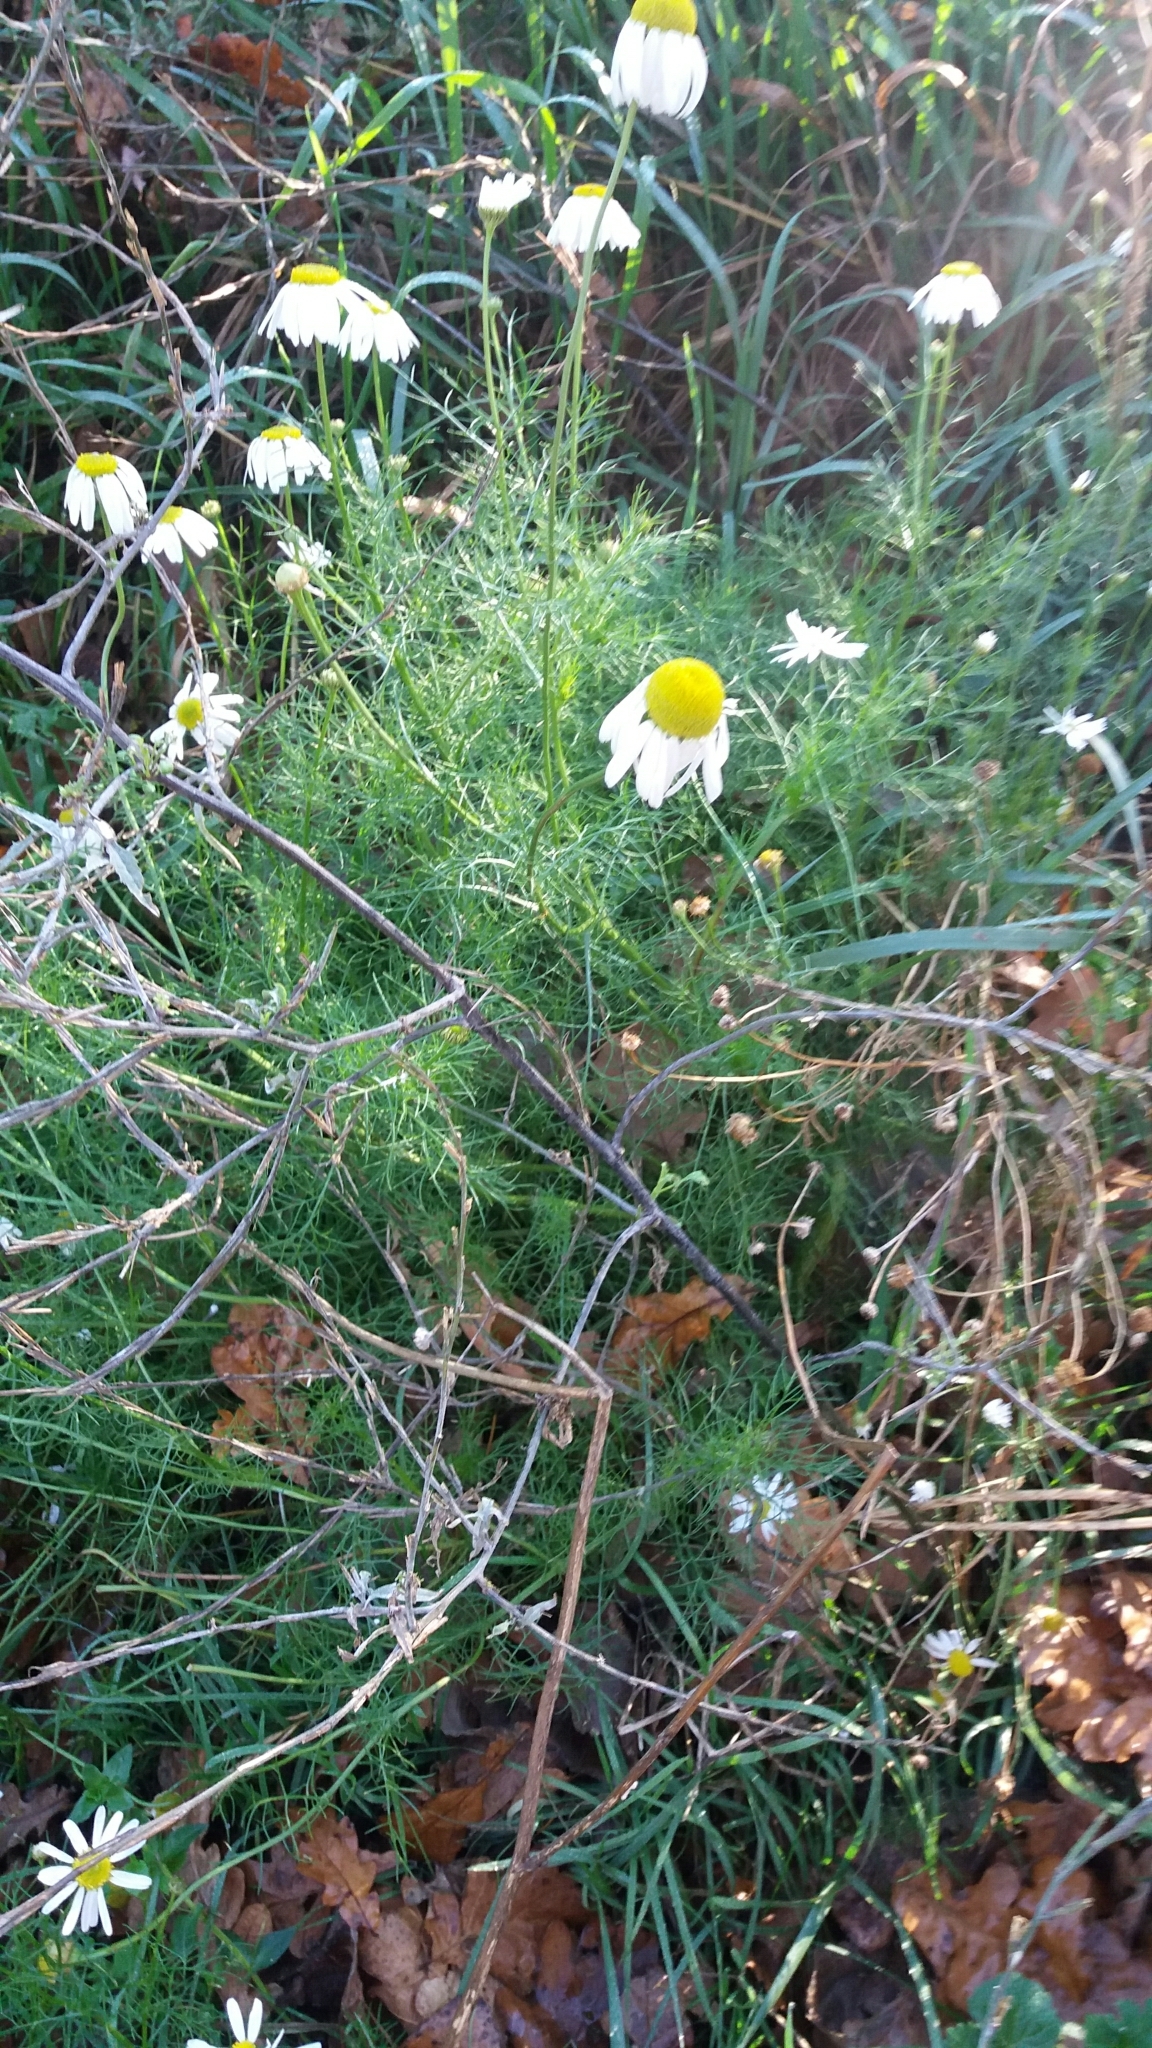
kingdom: Plantae
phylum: Tracheophyta
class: Magnoliopsida
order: Asterales
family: Asteraceae
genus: Tripleurospermum
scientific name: Tripleurospermum inodorum
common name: Scentless mayweed
